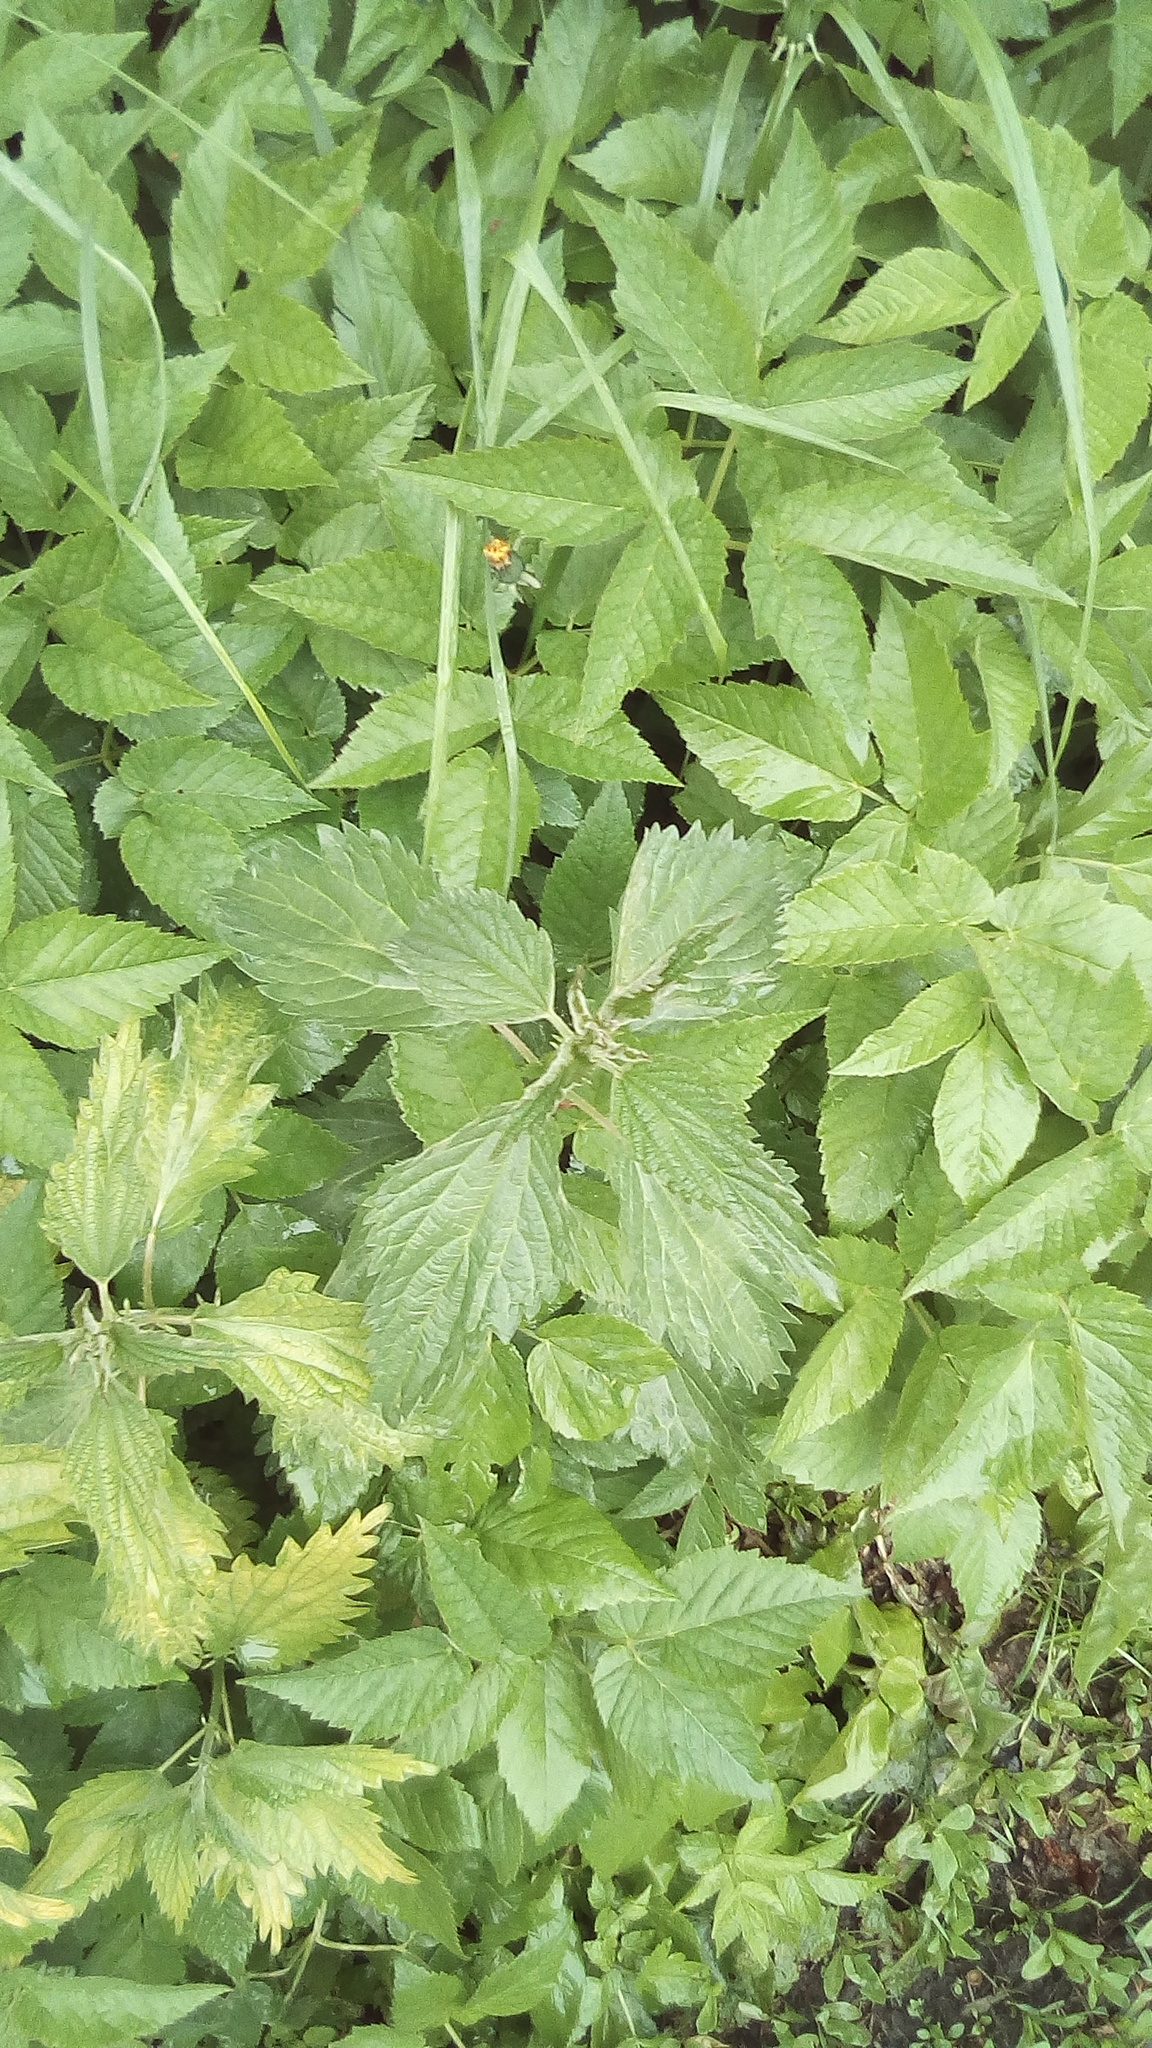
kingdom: Plantae
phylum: Tracheophyta
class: Magnoliopsida
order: Rosales
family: Urticaceae
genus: Urtica
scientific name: Urtica dioica
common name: Common nettle
